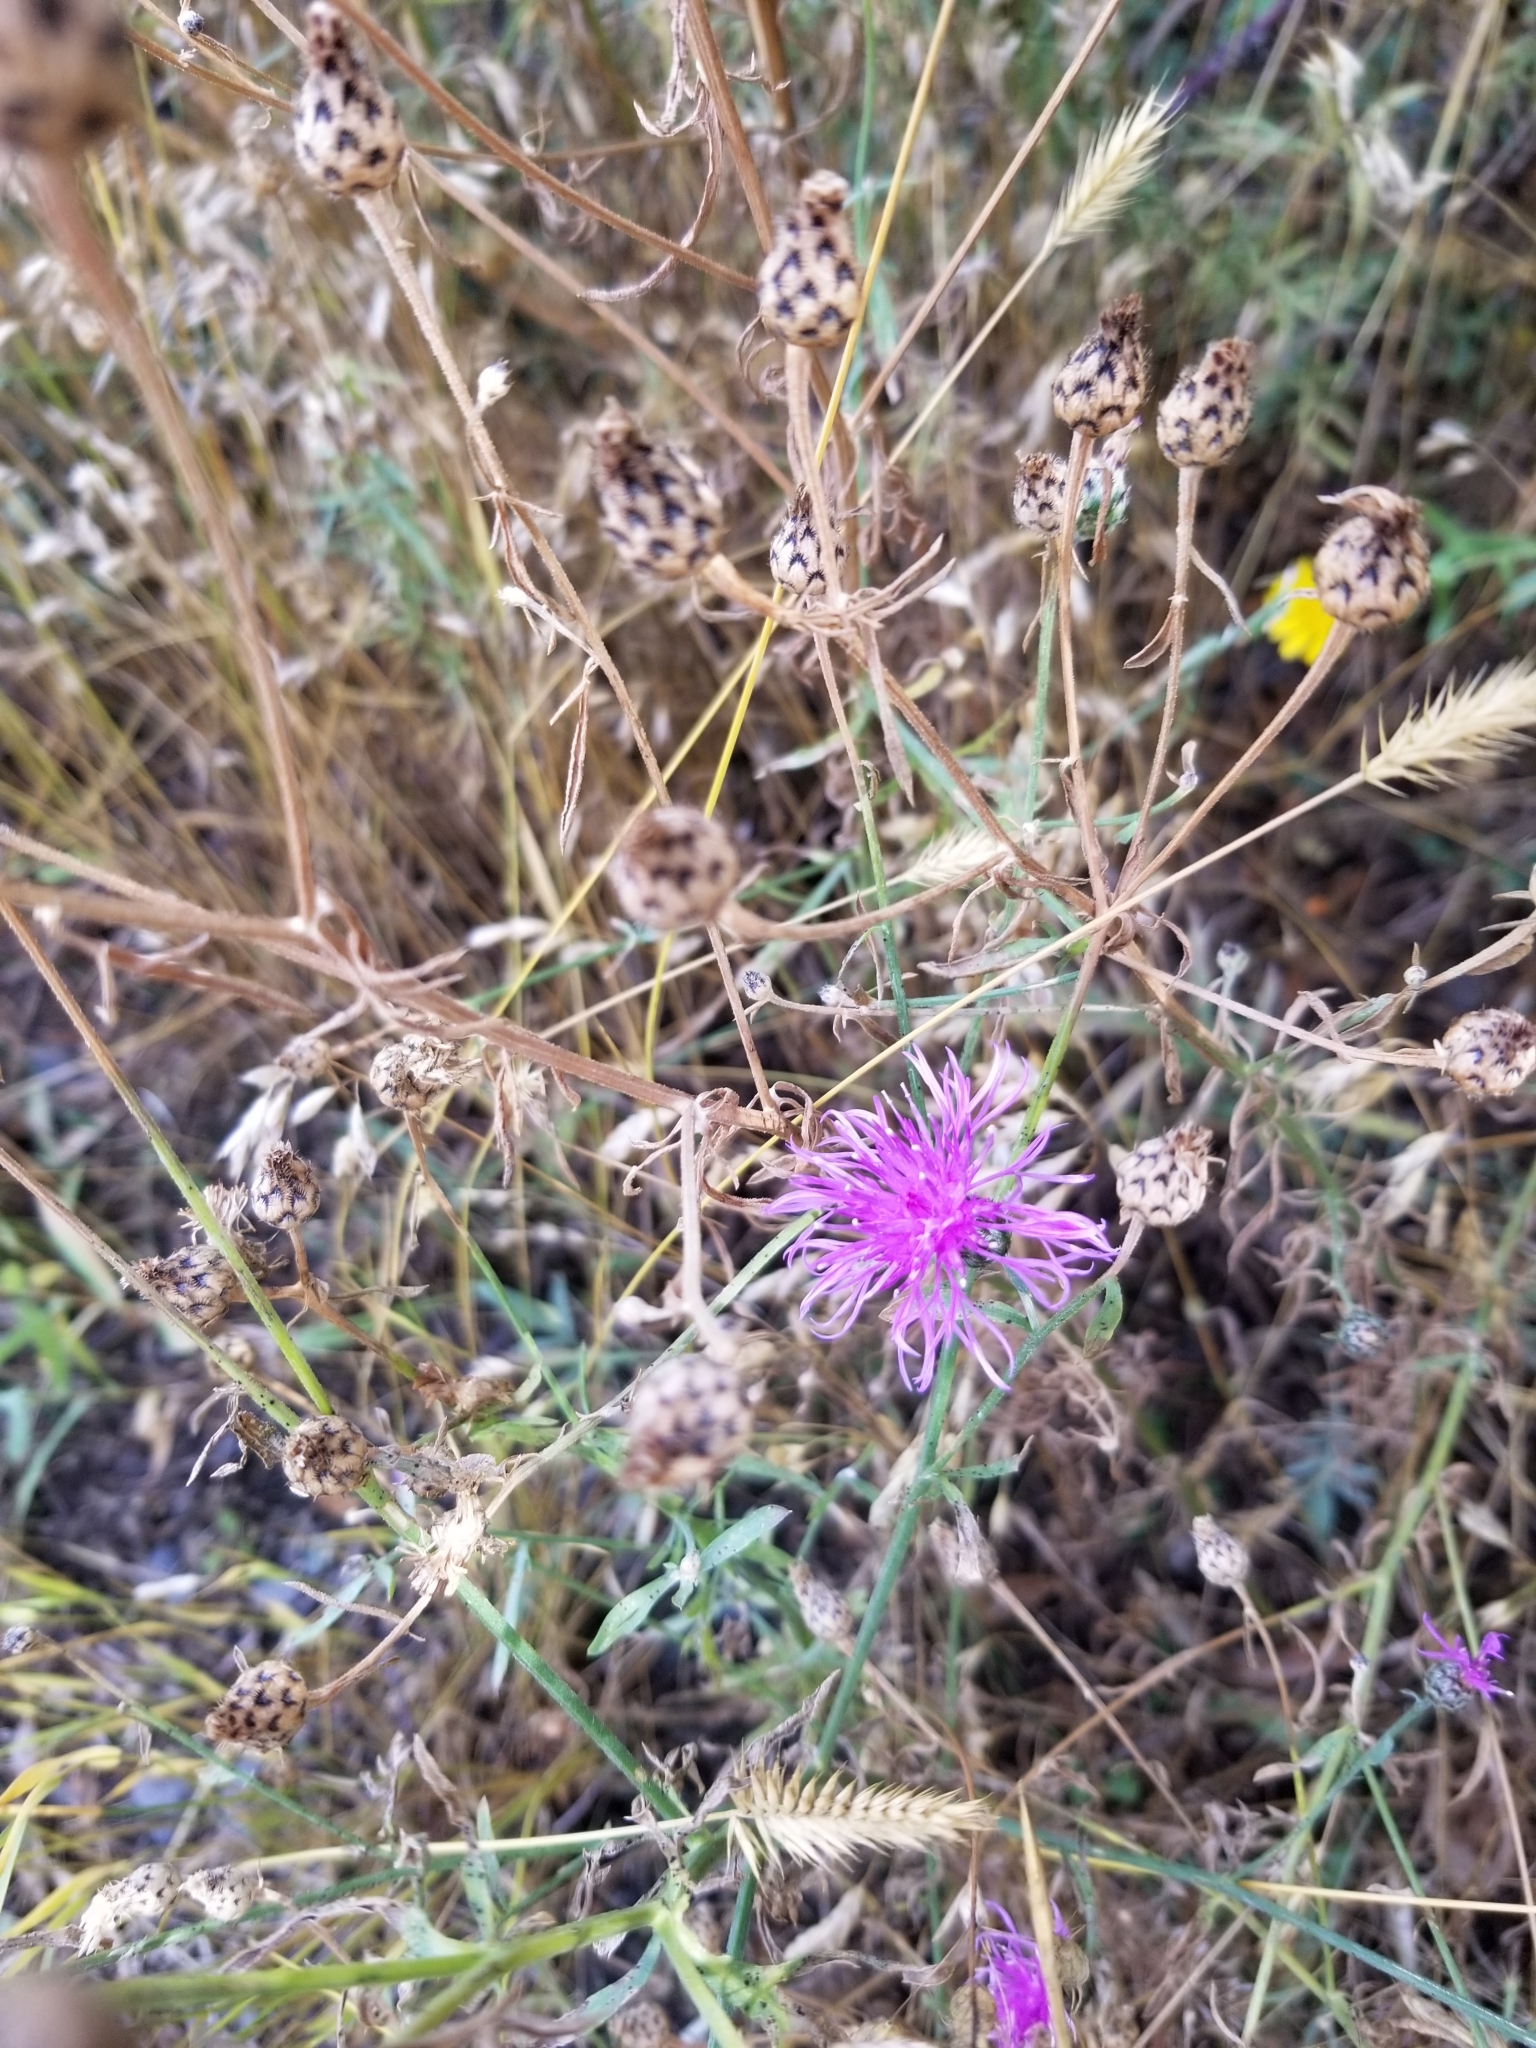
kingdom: Plantae
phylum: Tracheophyta
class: Magnoliopsida
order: Asterales
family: Asteraceae
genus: Centaurea
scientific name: Centaurea stoebe
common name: Spotted knapweed
